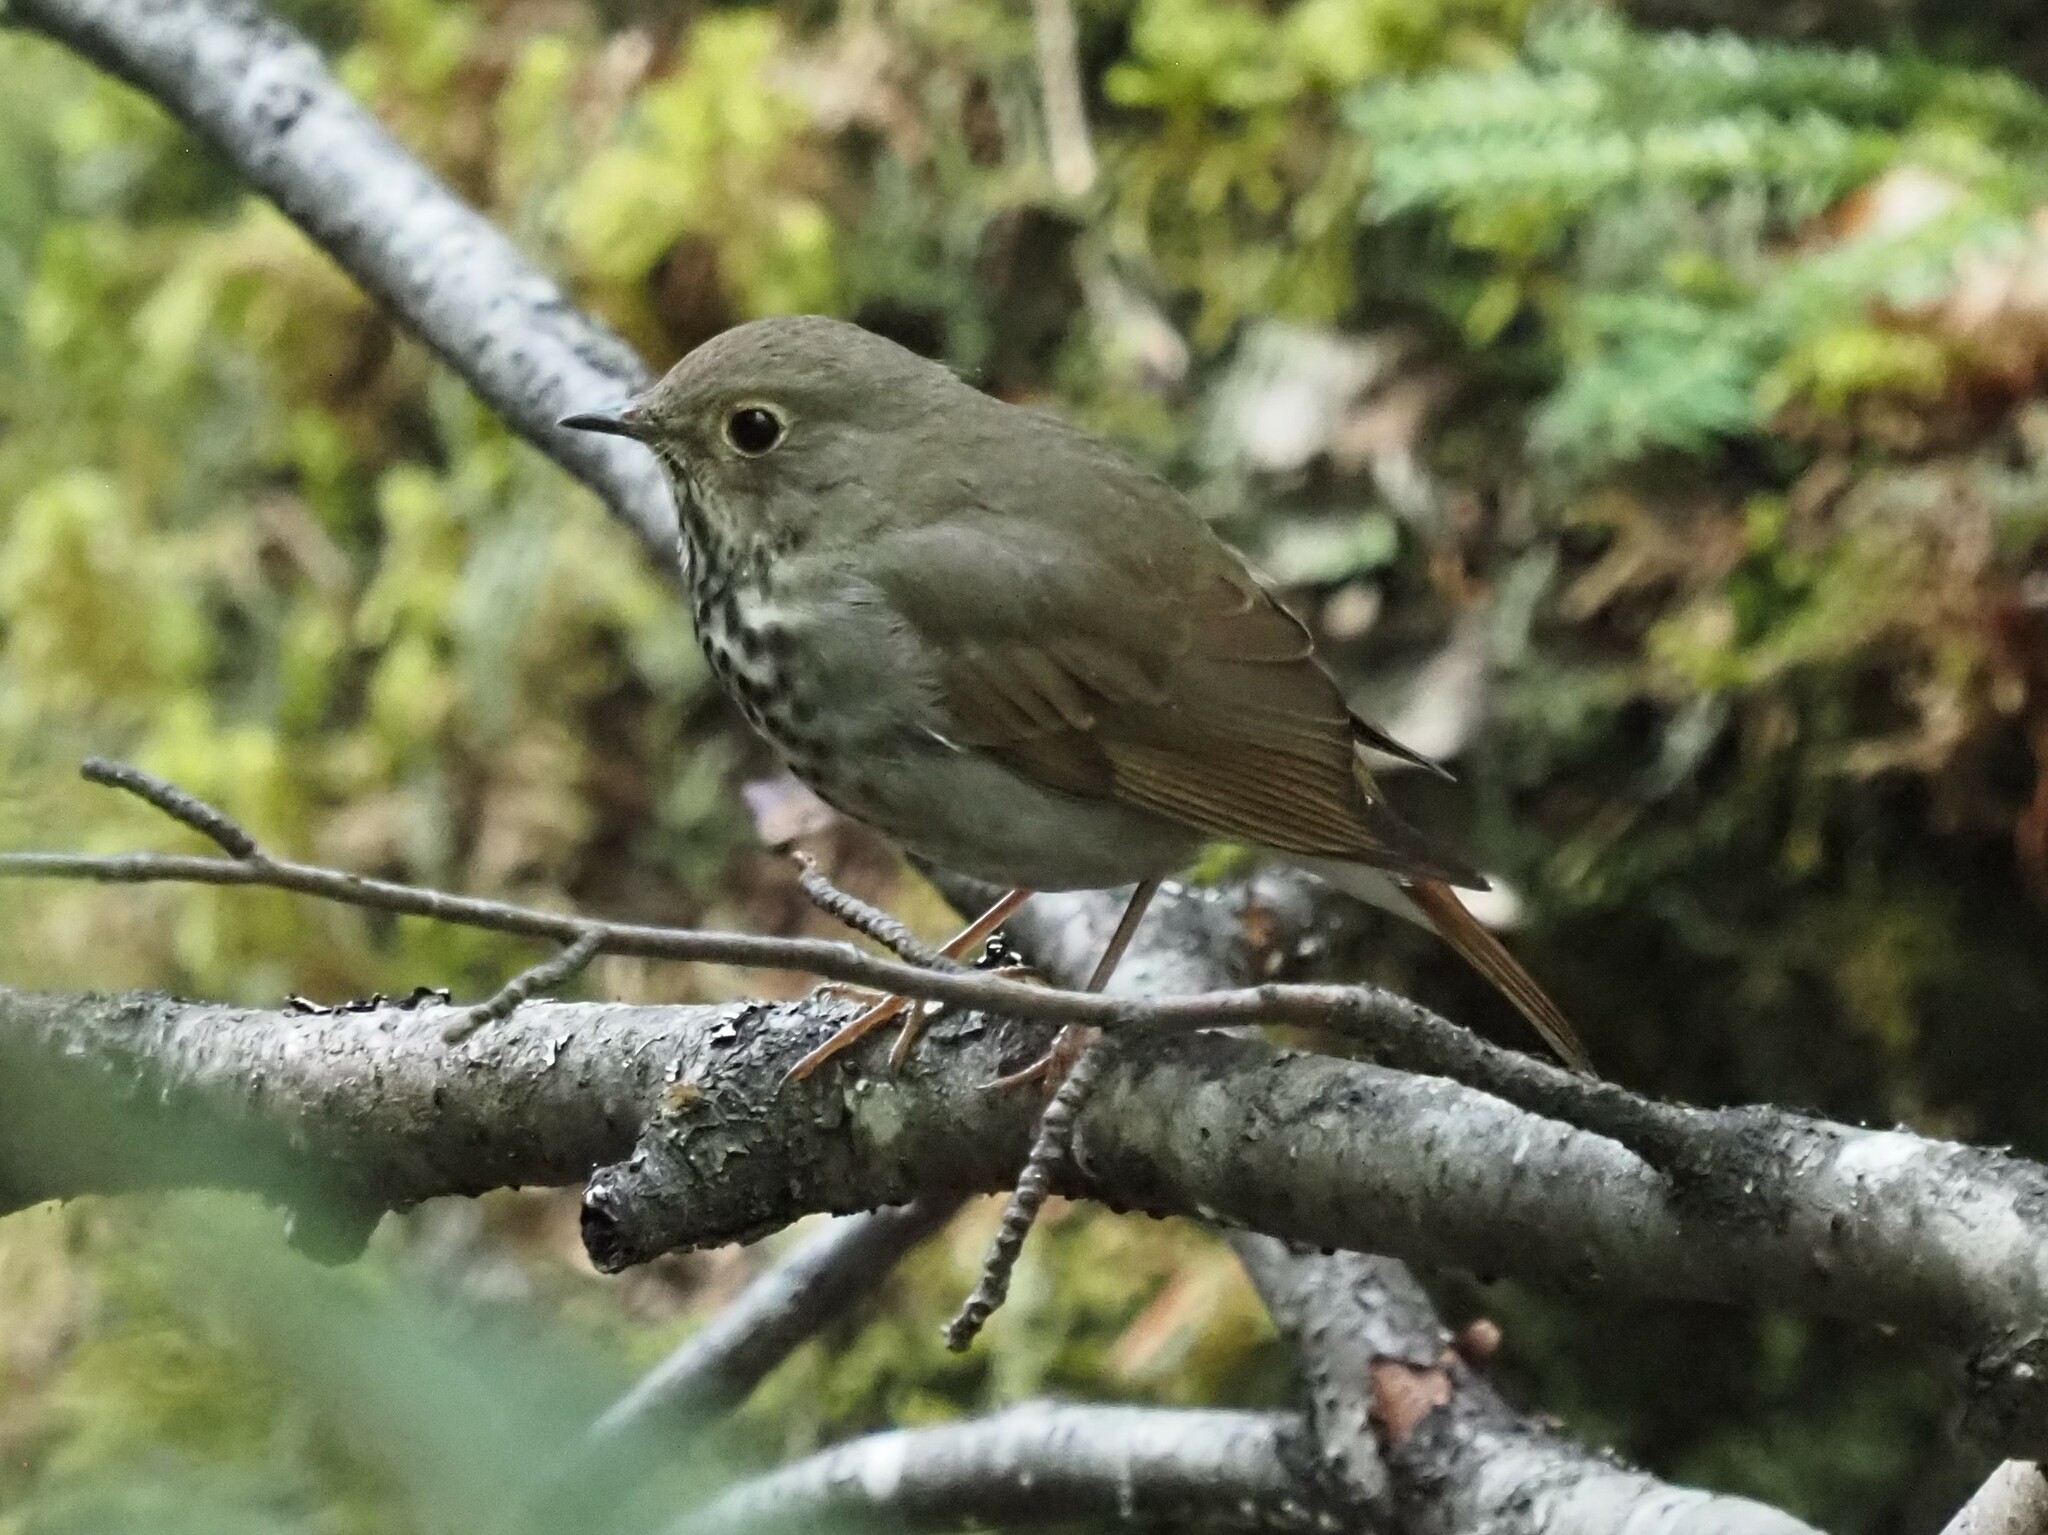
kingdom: Animalia
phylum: Chordata
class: Aves
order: Passeriformes
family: Turdidae
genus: Catharus
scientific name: Catharus guttatus
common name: Hermit thrush
